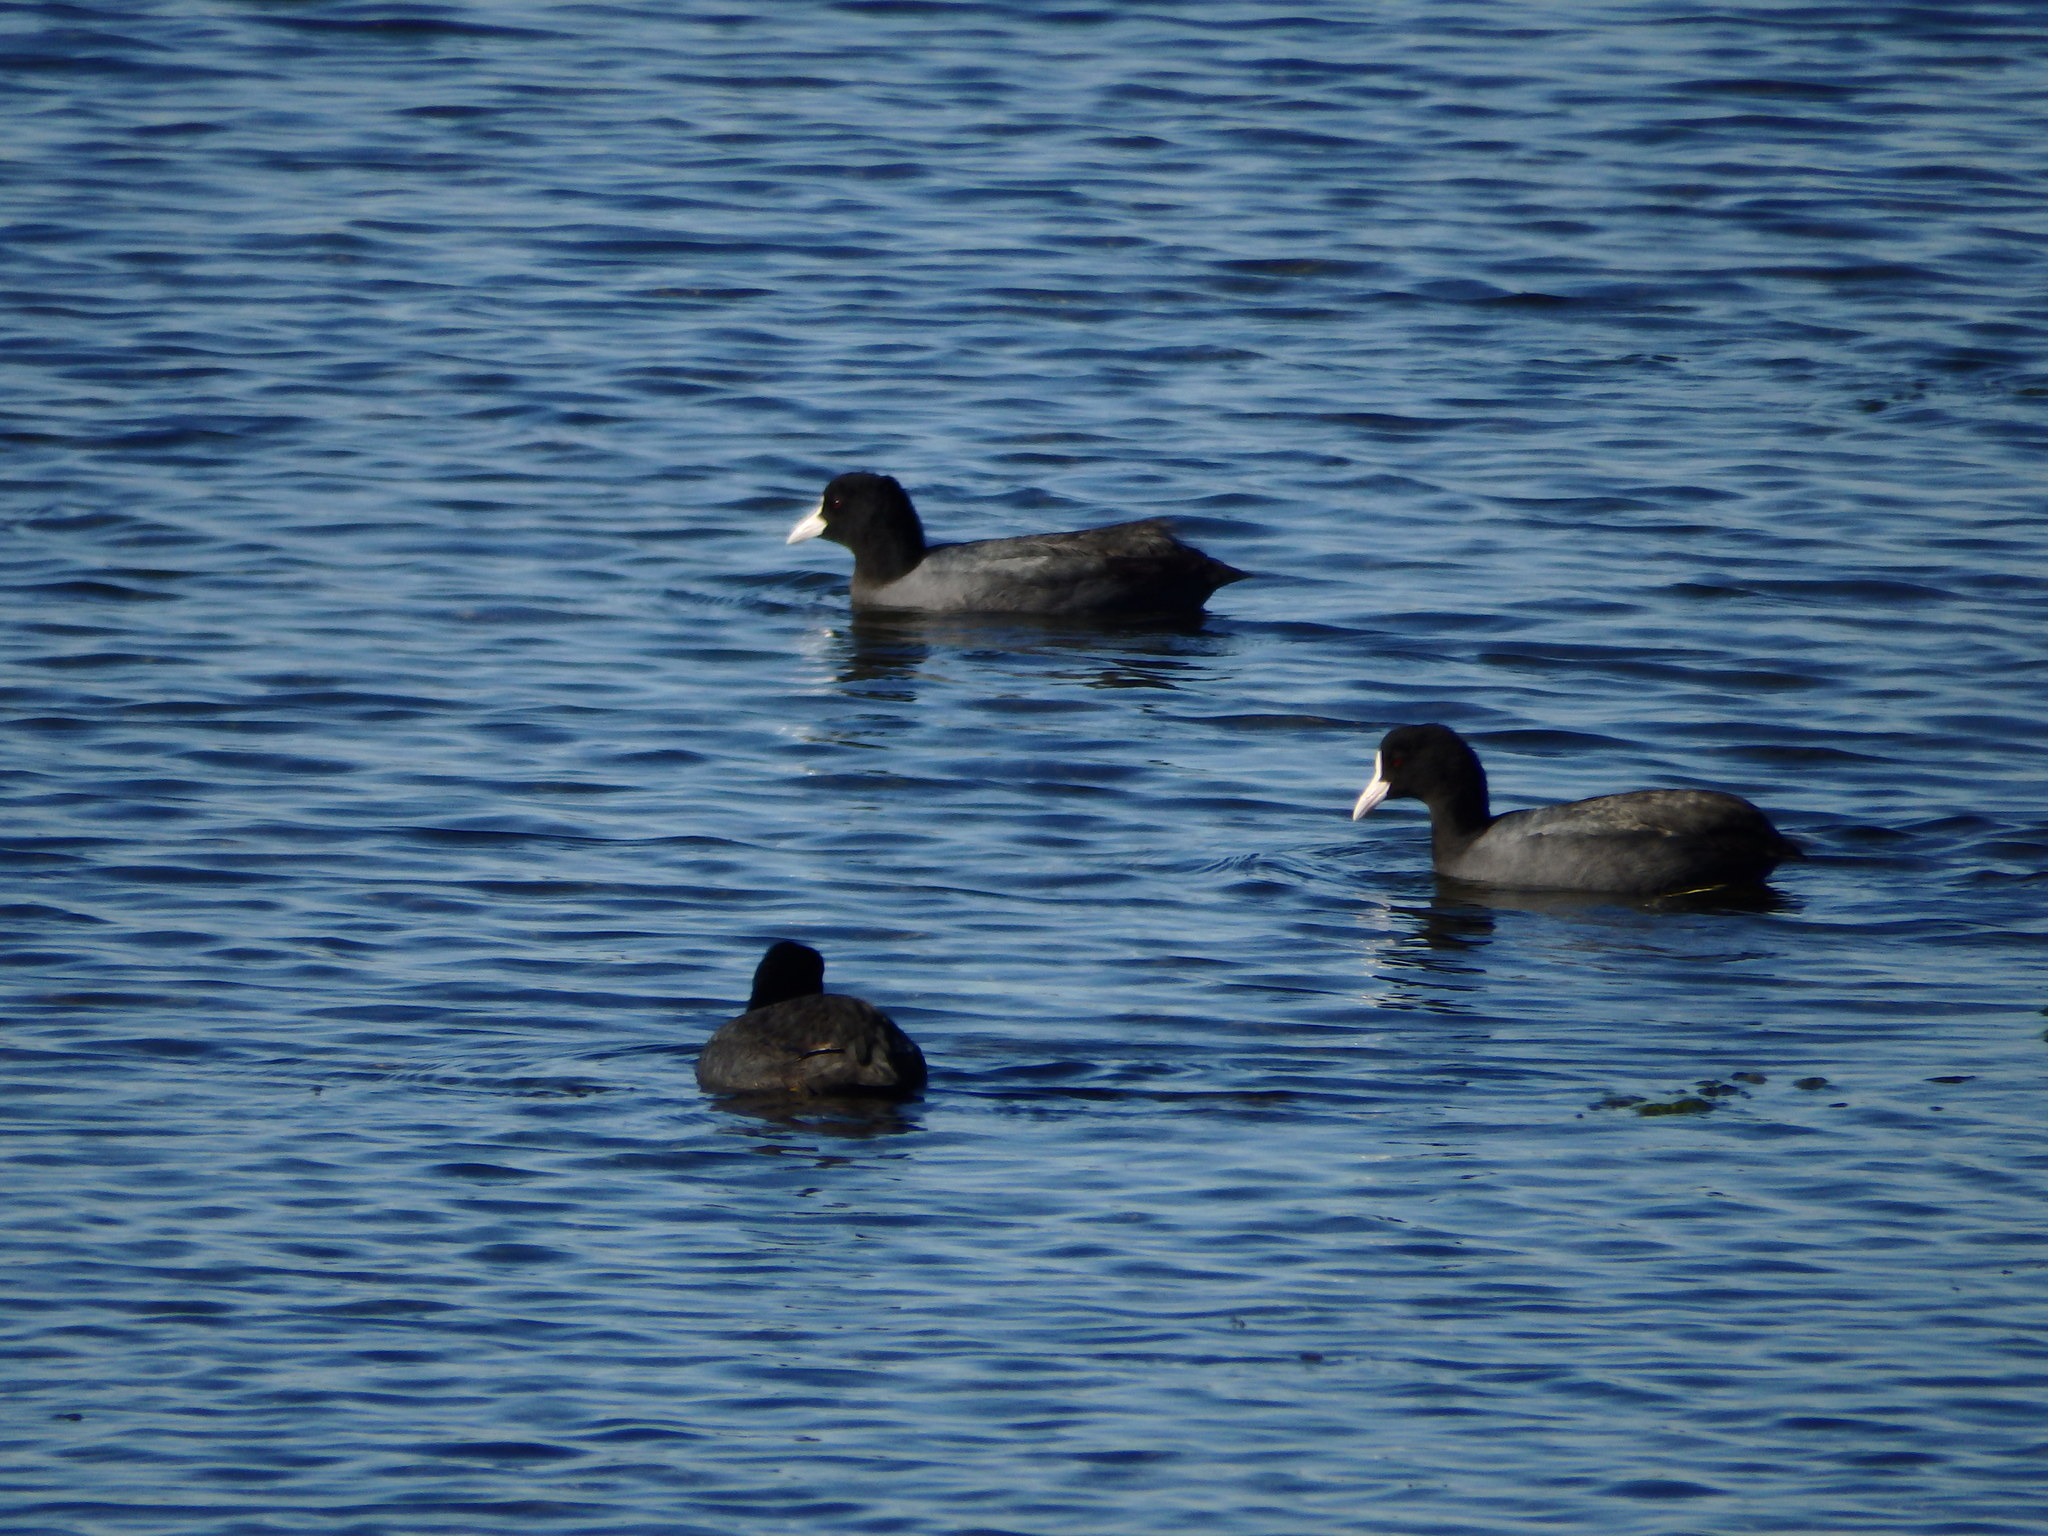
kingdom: Animalia
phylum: Chordata
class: Aves
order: Gruiformes
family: Rallidae
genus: Fulica
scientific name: Fulica atra
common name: Eurasian coot
